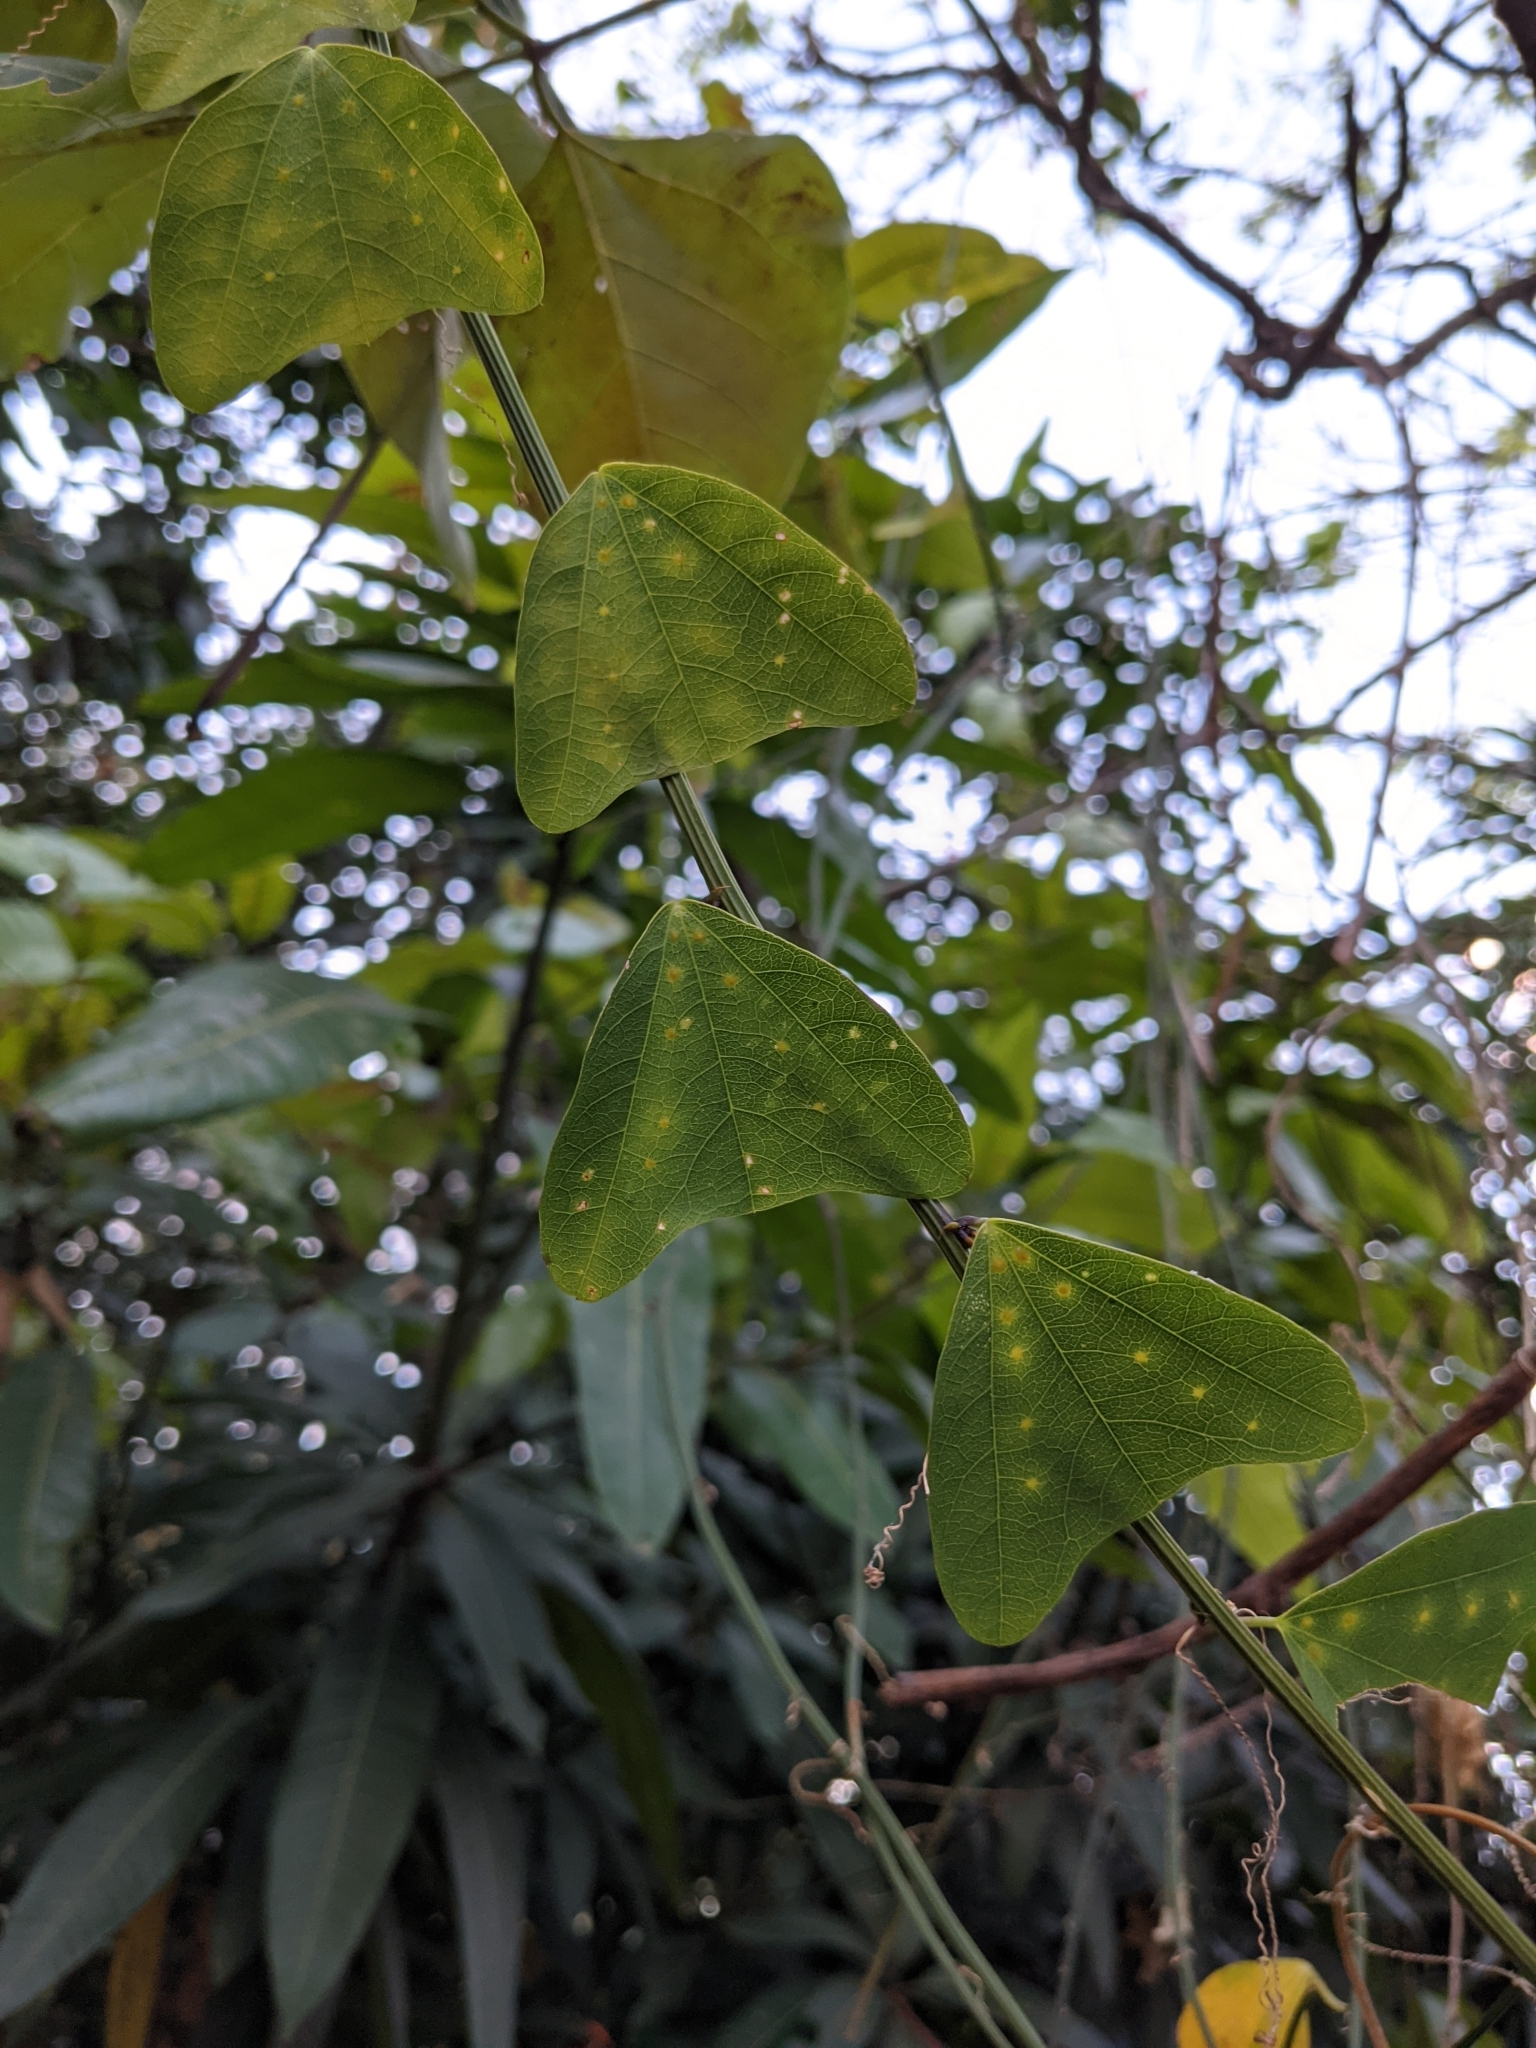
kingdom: Plantae
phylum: Tracheophyta
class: Magnoliopsida
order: Malpighiales
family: Passifloraceae
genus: Passiflora
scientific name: Passiflora biflora
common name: Twoflower passionflower
